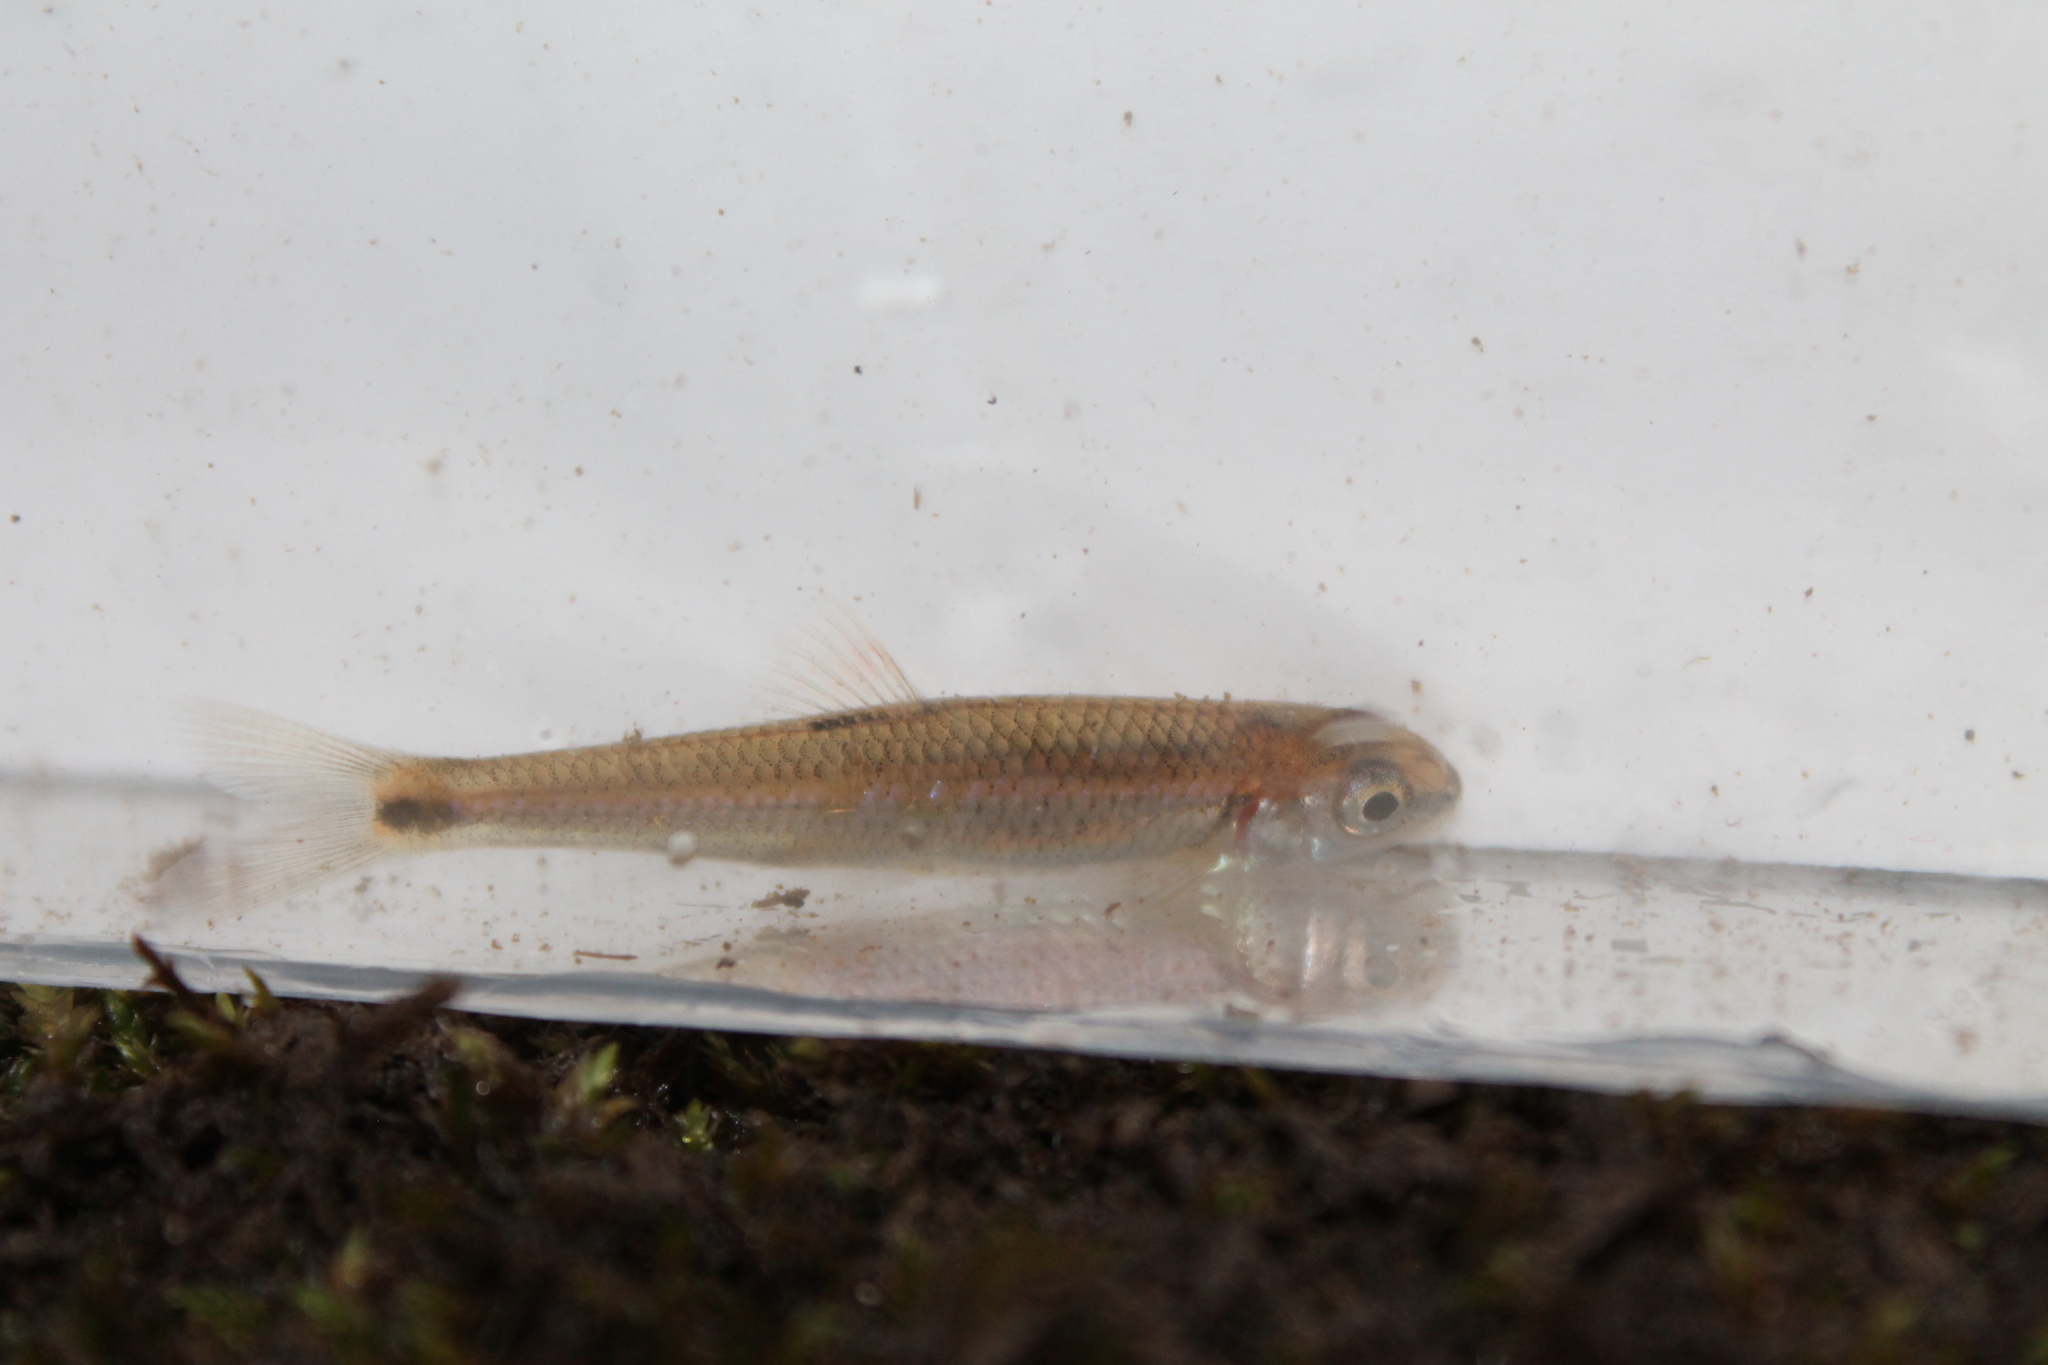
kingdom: Animalia
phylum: Chordata
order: Cypriniformes
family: Cyprinidae
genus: Notropis
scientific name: Notropis
